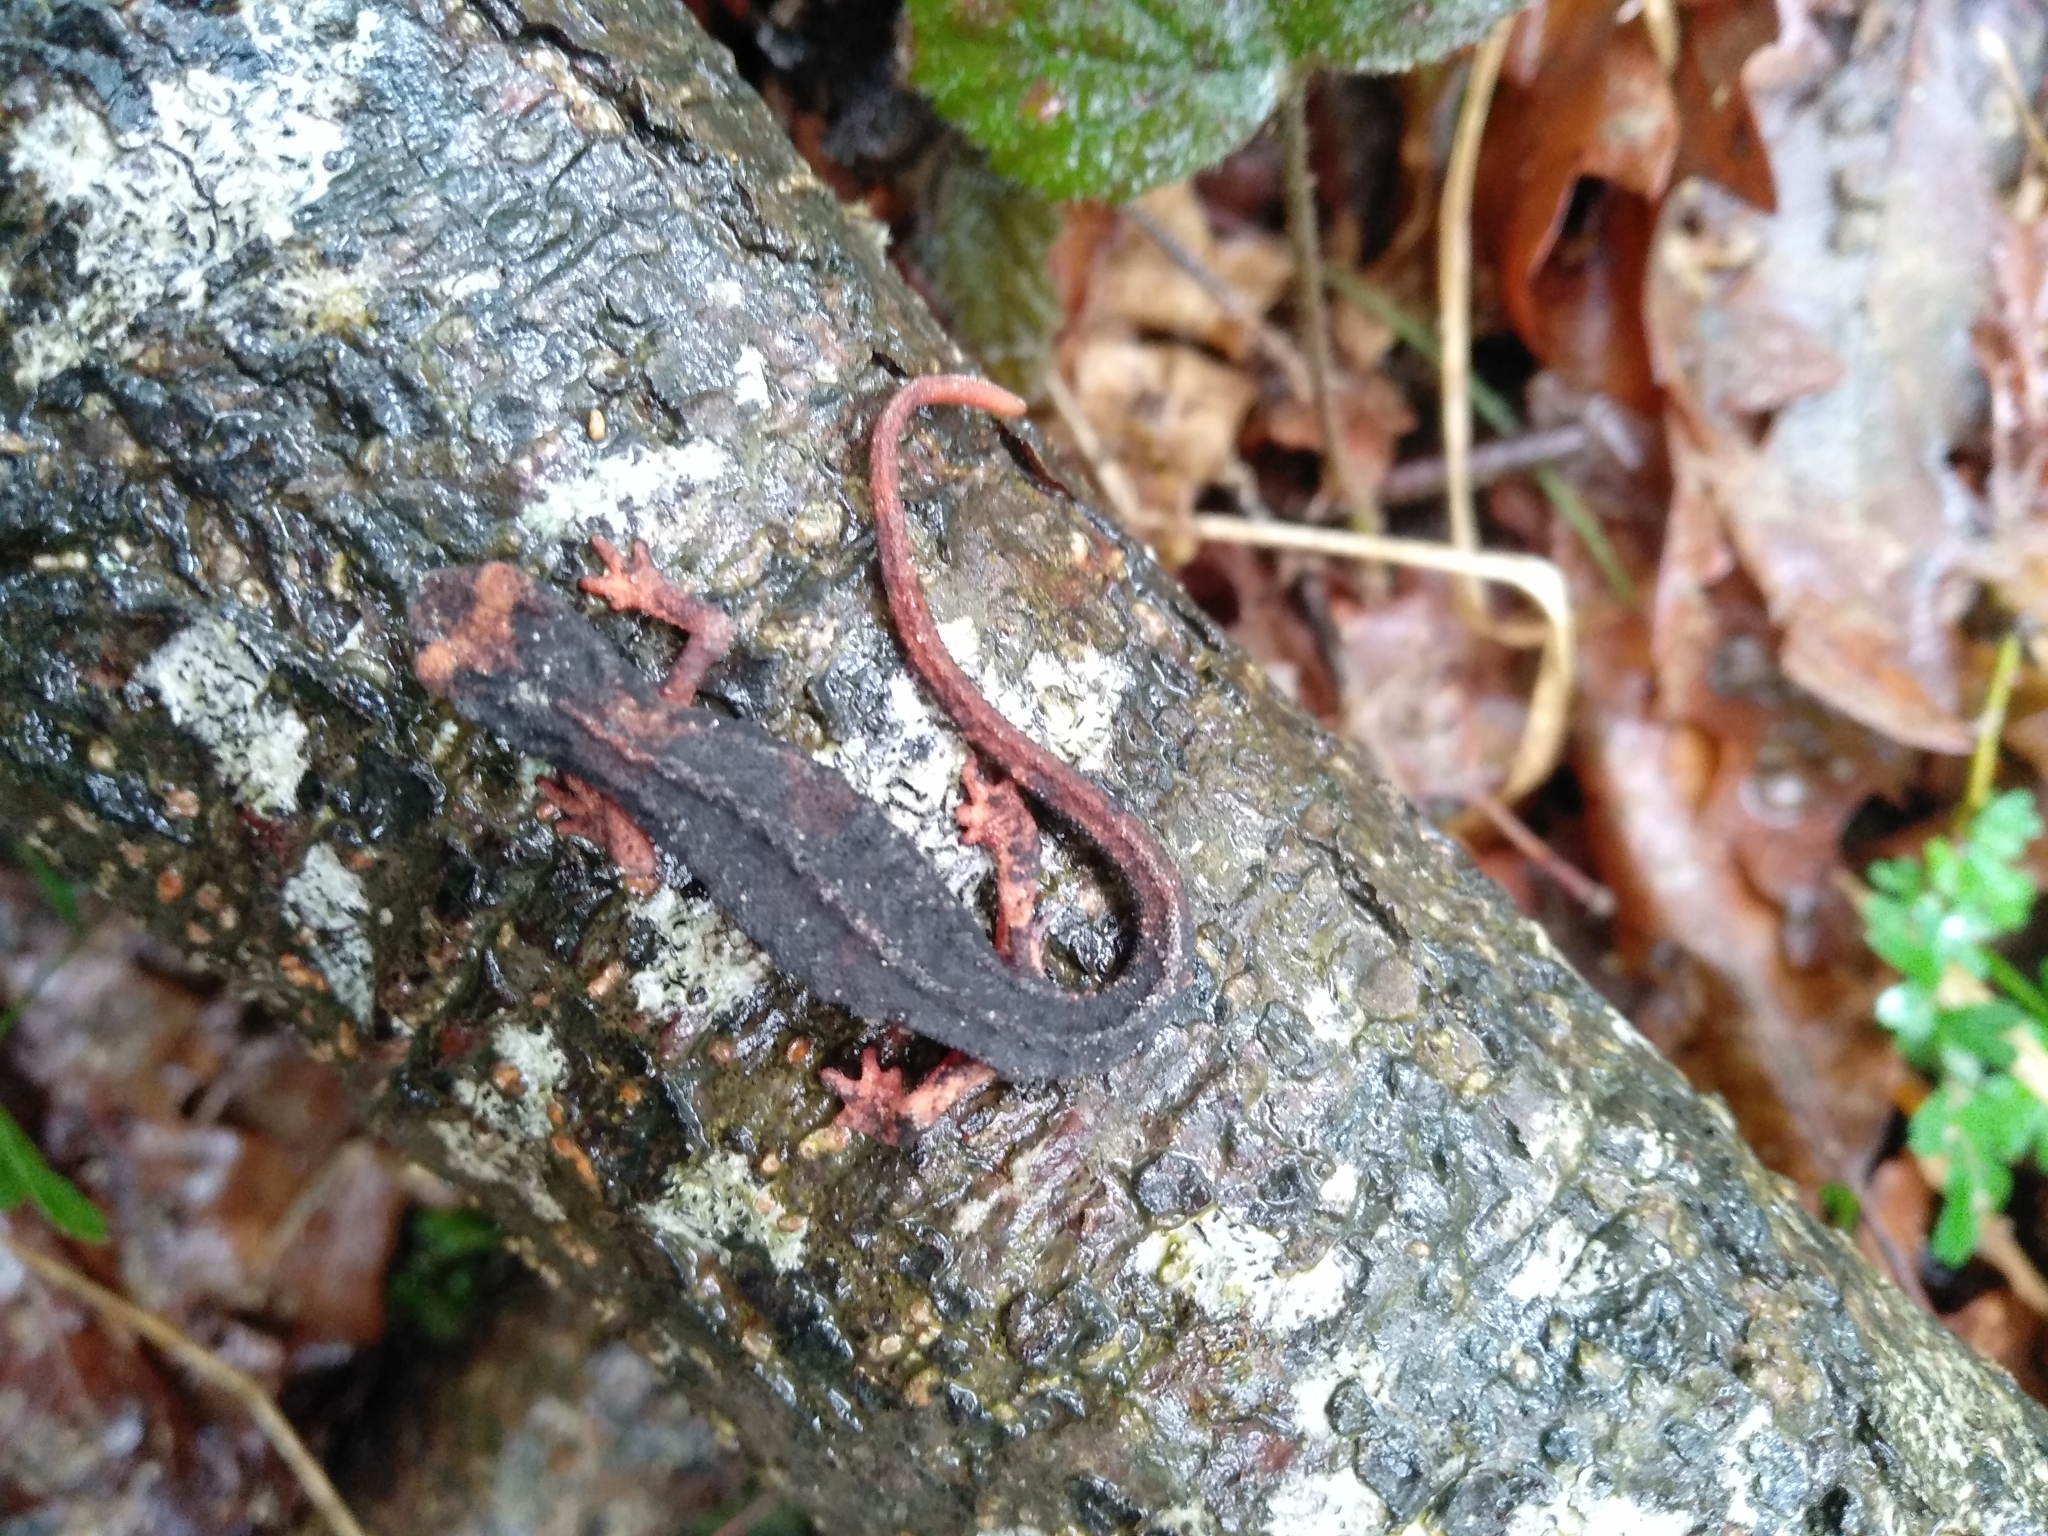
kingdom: Animalia
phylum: Chordata
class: Amphibia
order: Caudata
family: Salamandridae
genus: Salamandrina
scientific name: Salamandrina perspicillata
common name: Northern spectacled salamander
